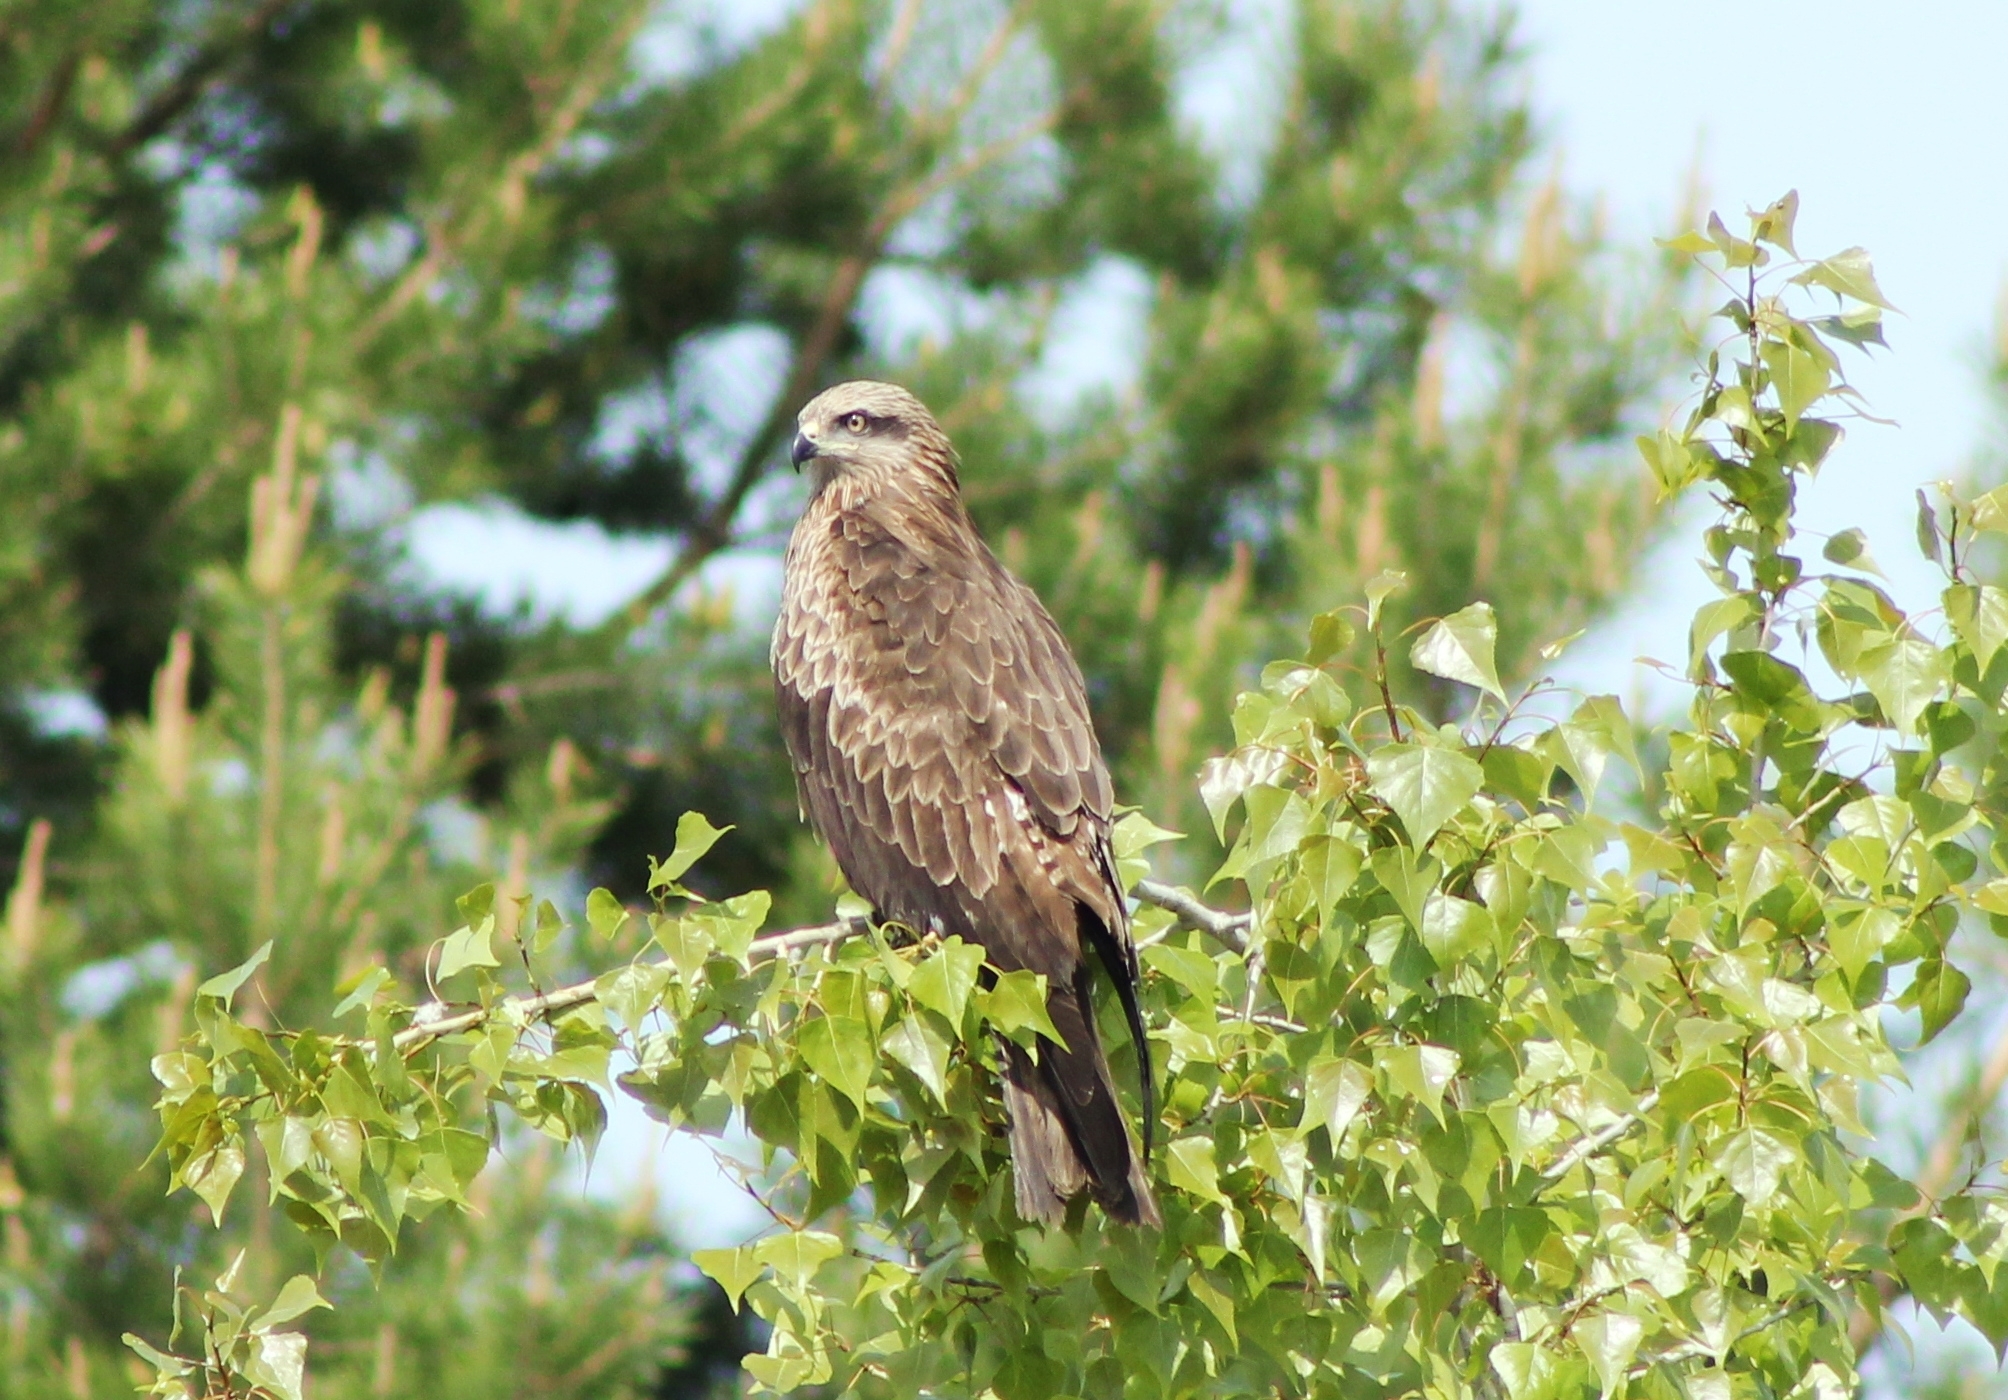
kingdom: Animalia
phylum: Chordata
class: Aves
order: Accipitriformes
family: Accipitridae
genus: Milvus
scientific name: Milvus migrans
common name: Black kite
